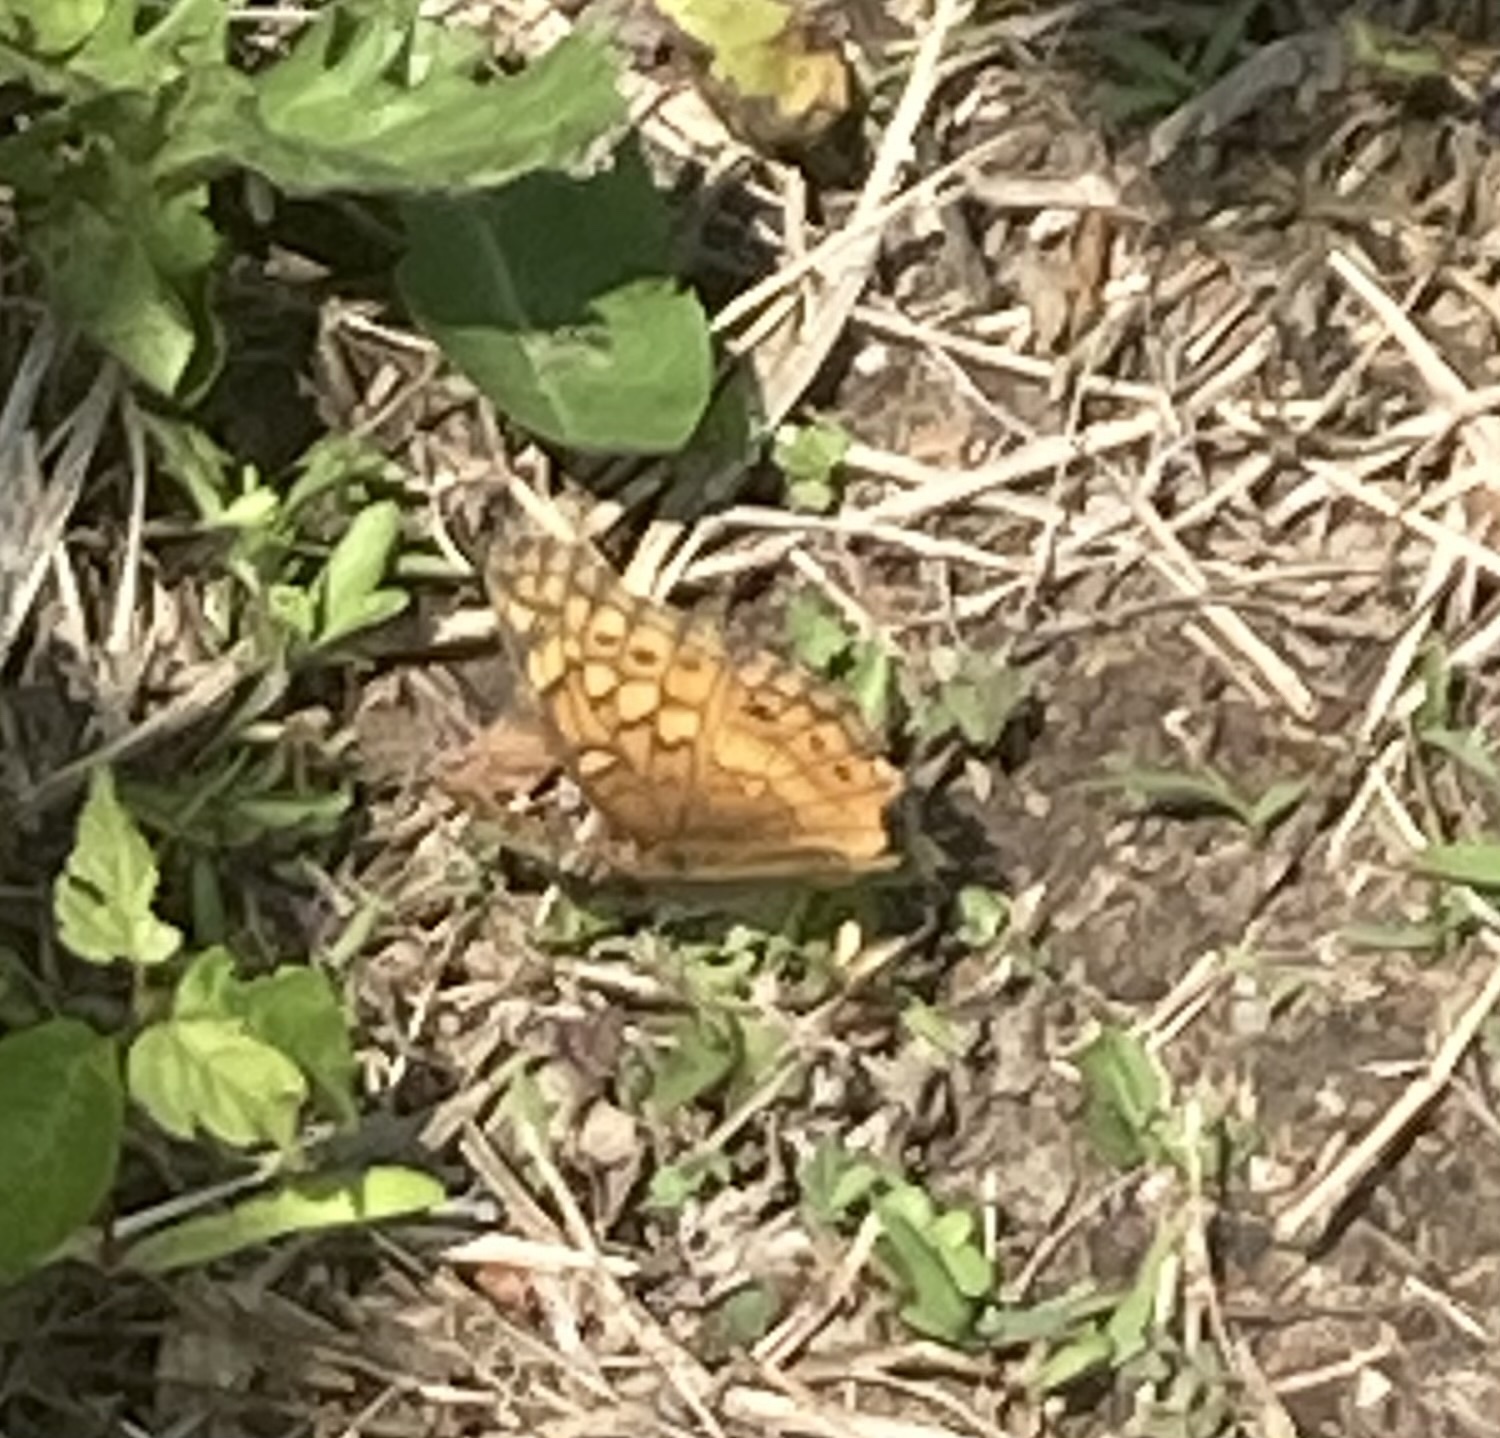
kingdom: Animalia
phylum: Arthropoda
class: Insecta
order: Lepidoptera
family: Nymphalidae
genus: Euptoieta
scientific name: Euptoieta claudia
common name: Variegated fritillary
